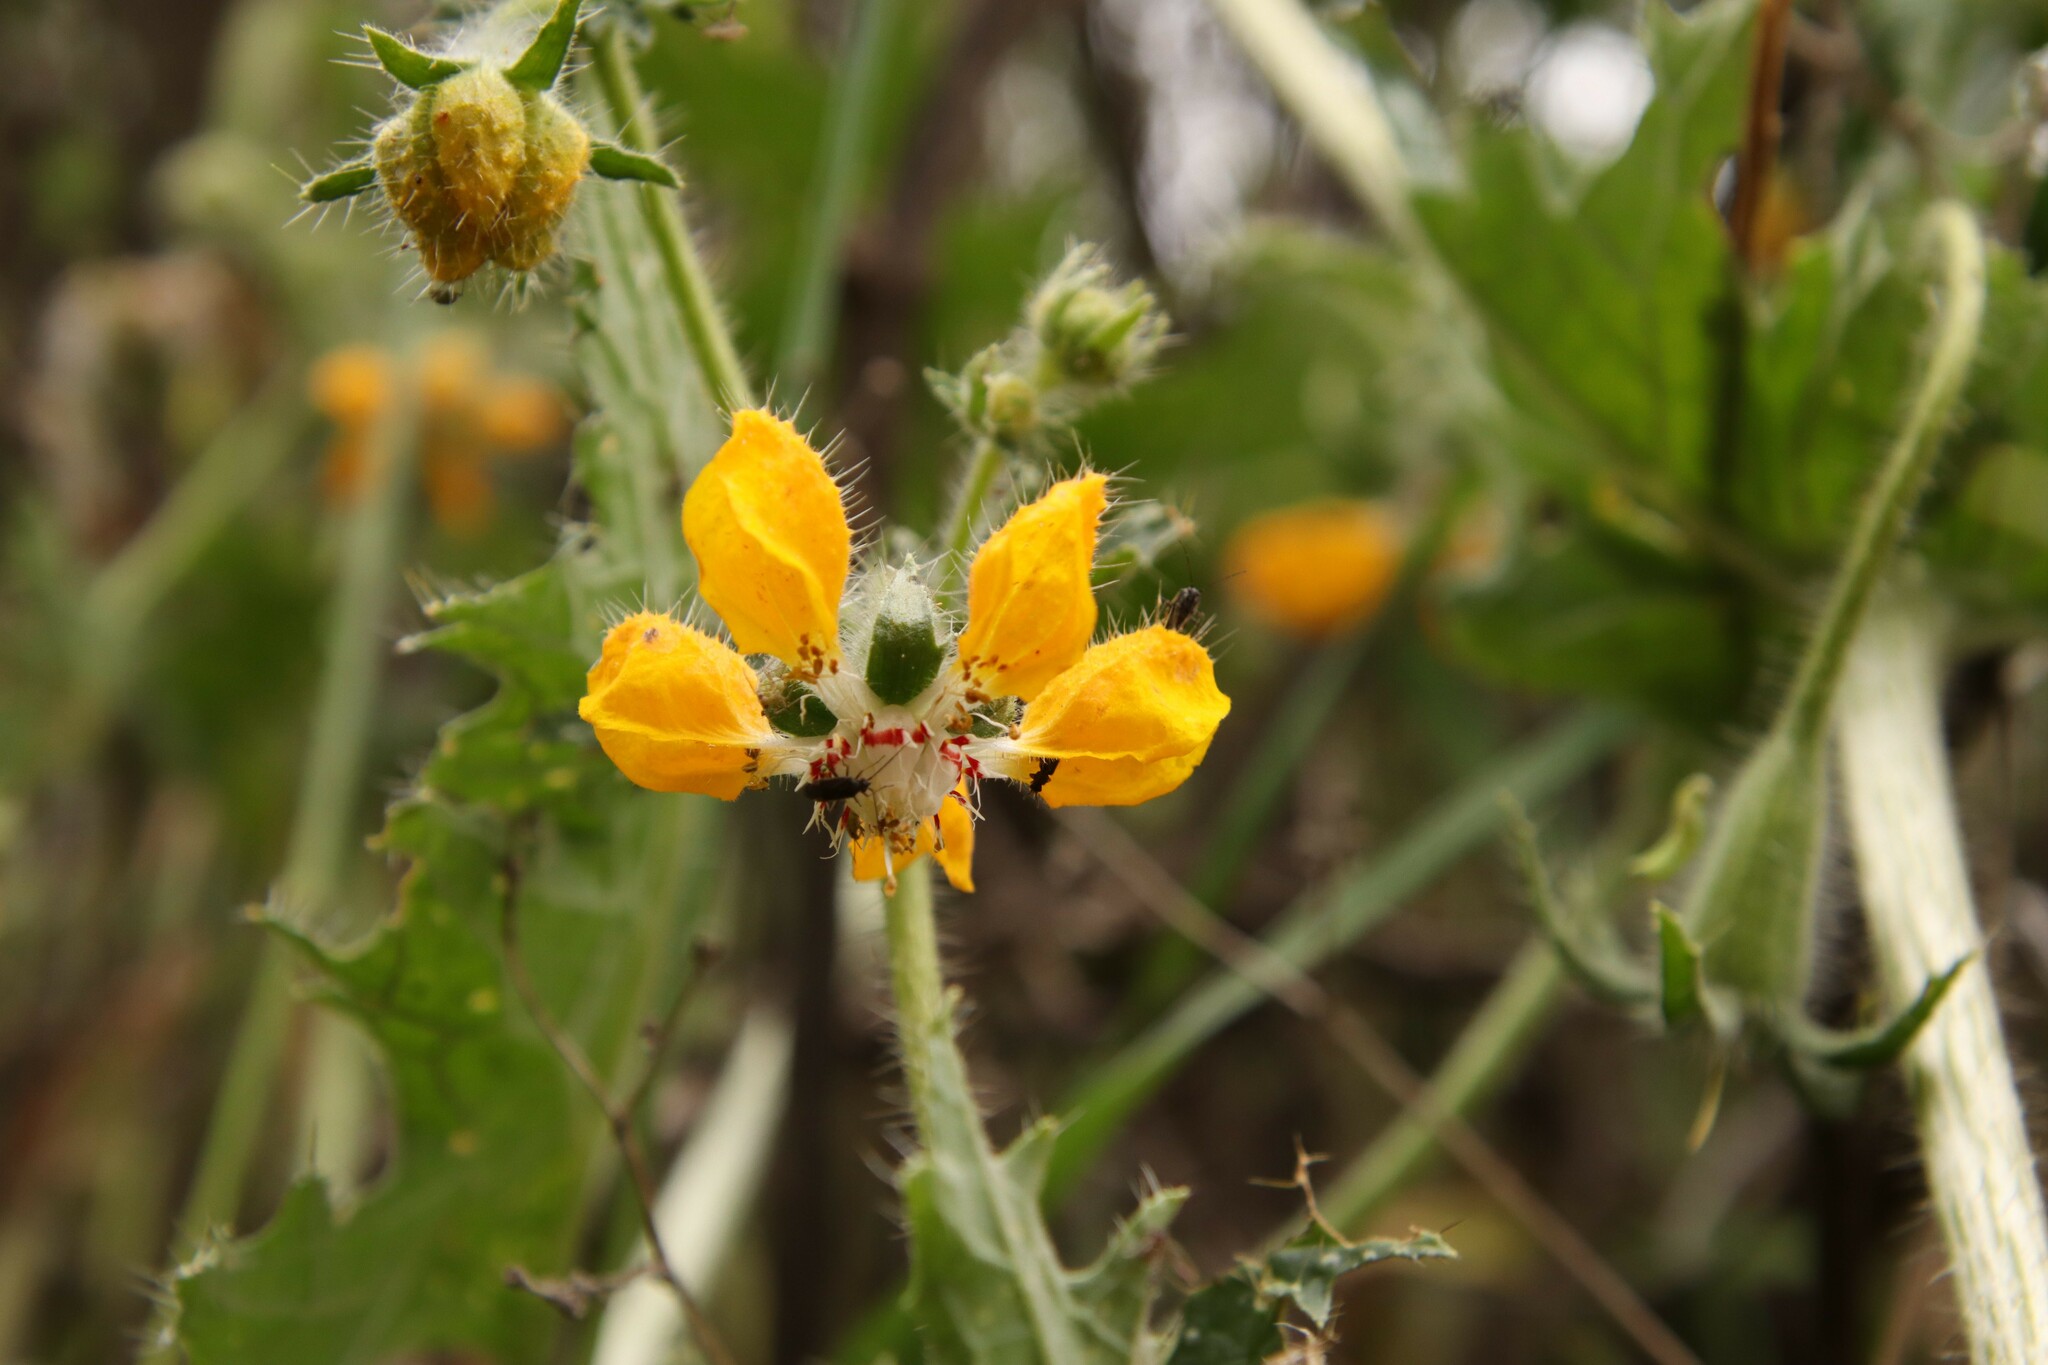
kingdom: Plantae
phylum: Tracheophyta
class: Magnoliopsida
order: Cornales
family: Loasaceae
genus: Loasa
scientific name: Loasa placei
